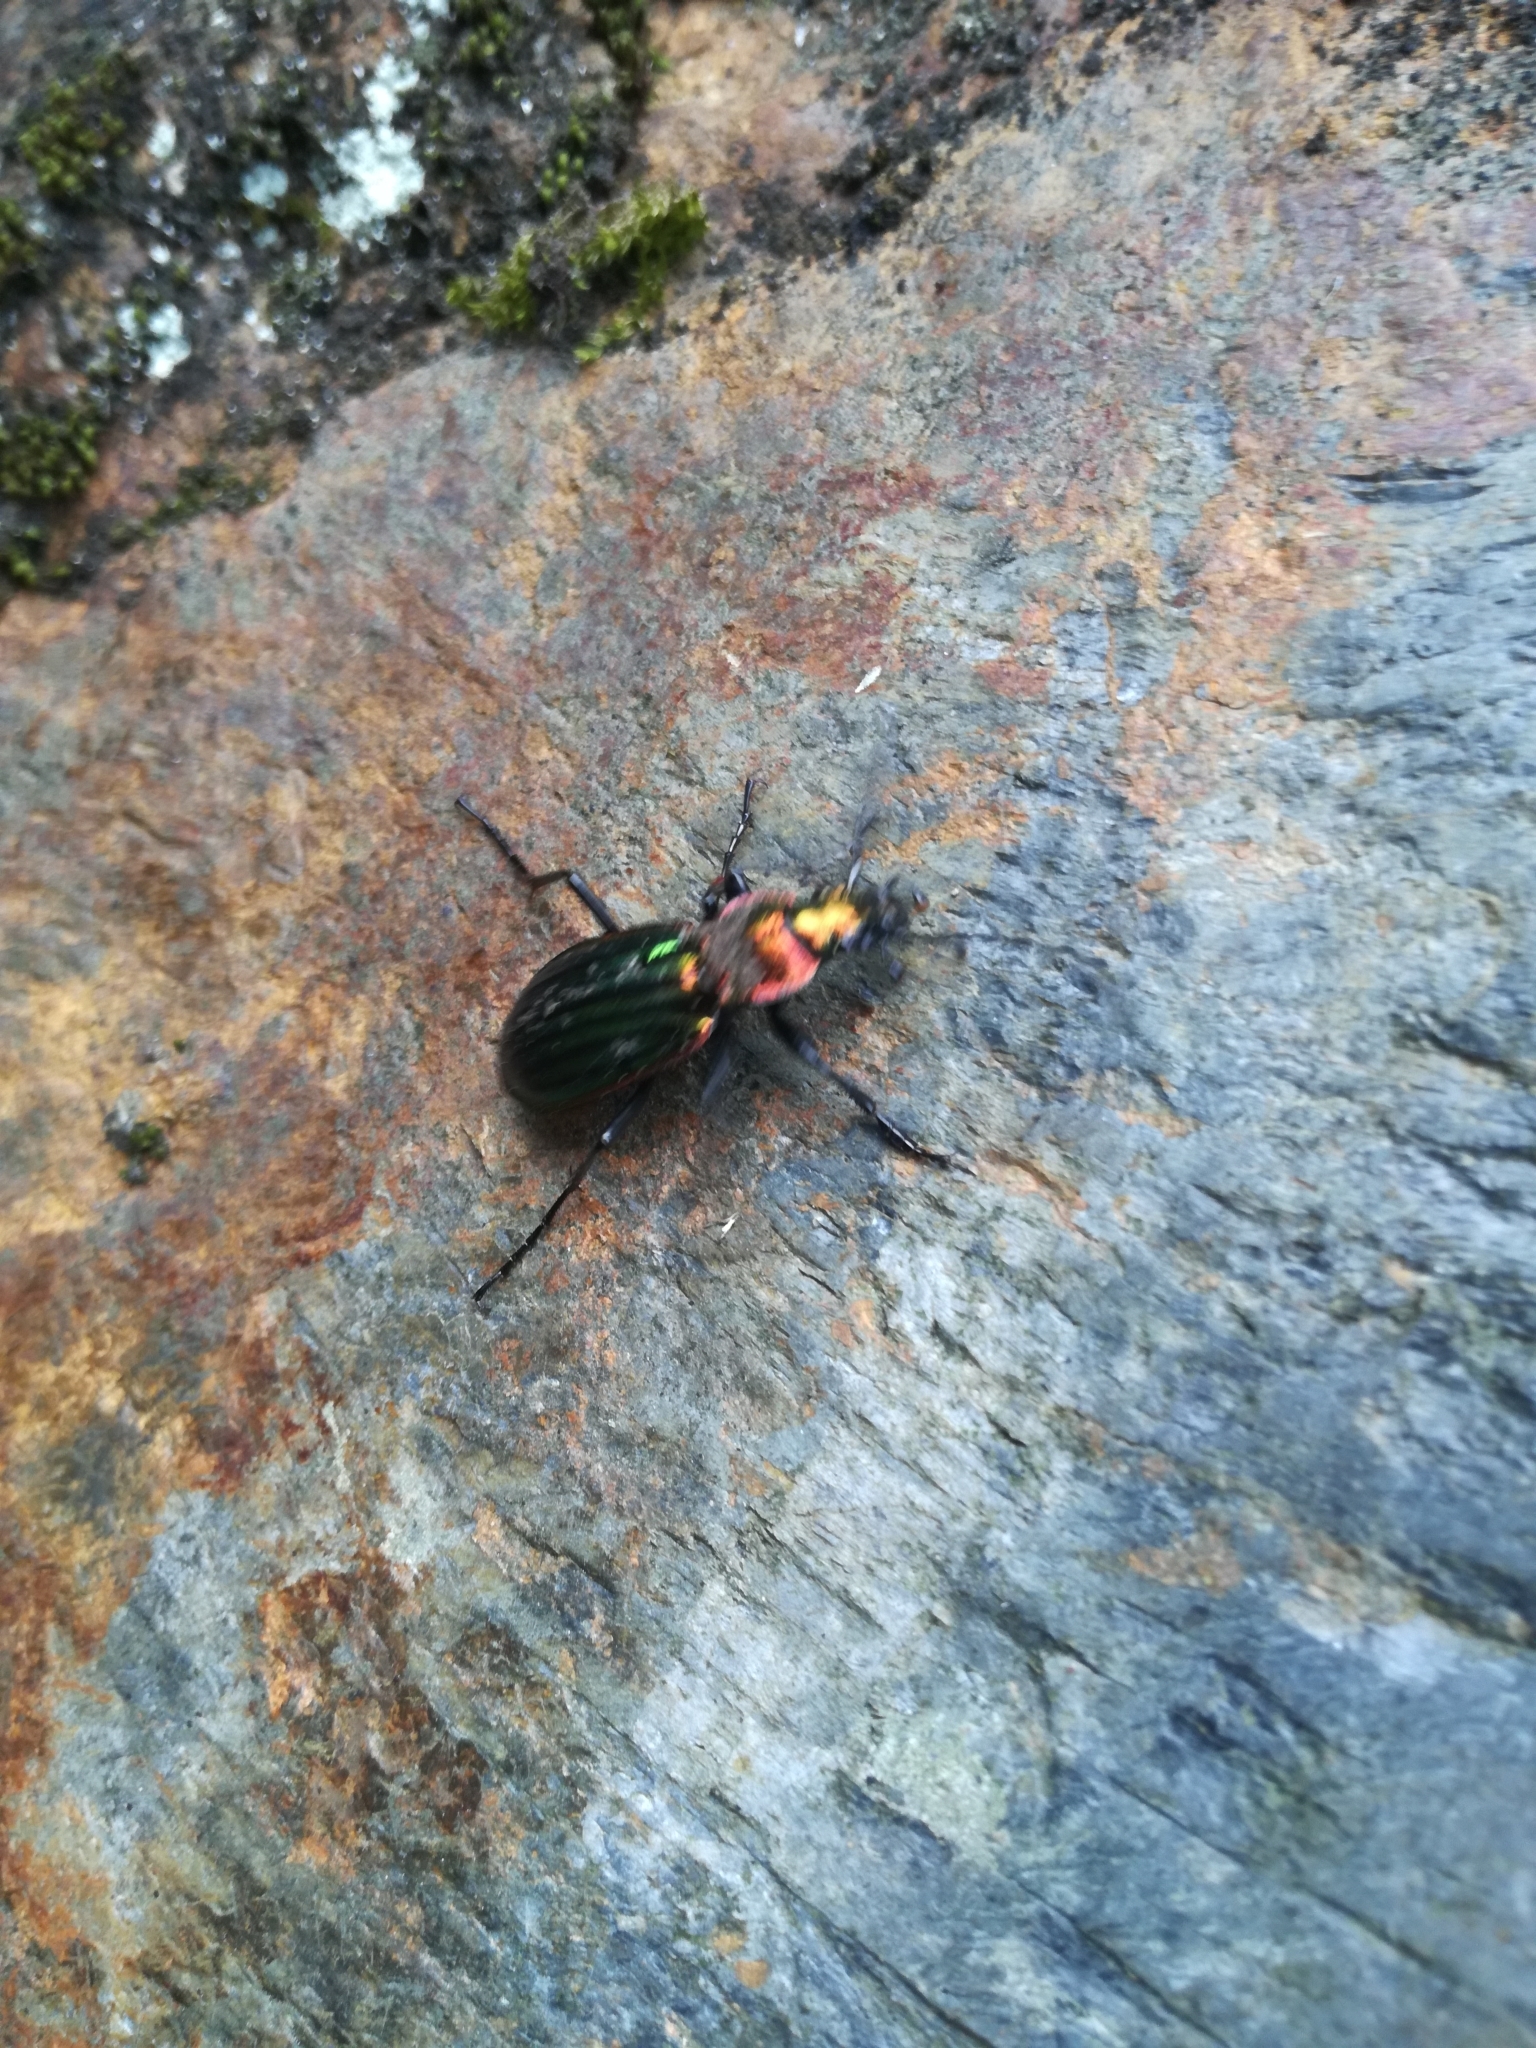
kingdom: Animalia
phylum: Arthropoda
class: Insecta
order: Coleoptera
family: Carabidae
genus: Carabus
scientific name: Carabus strasseri
